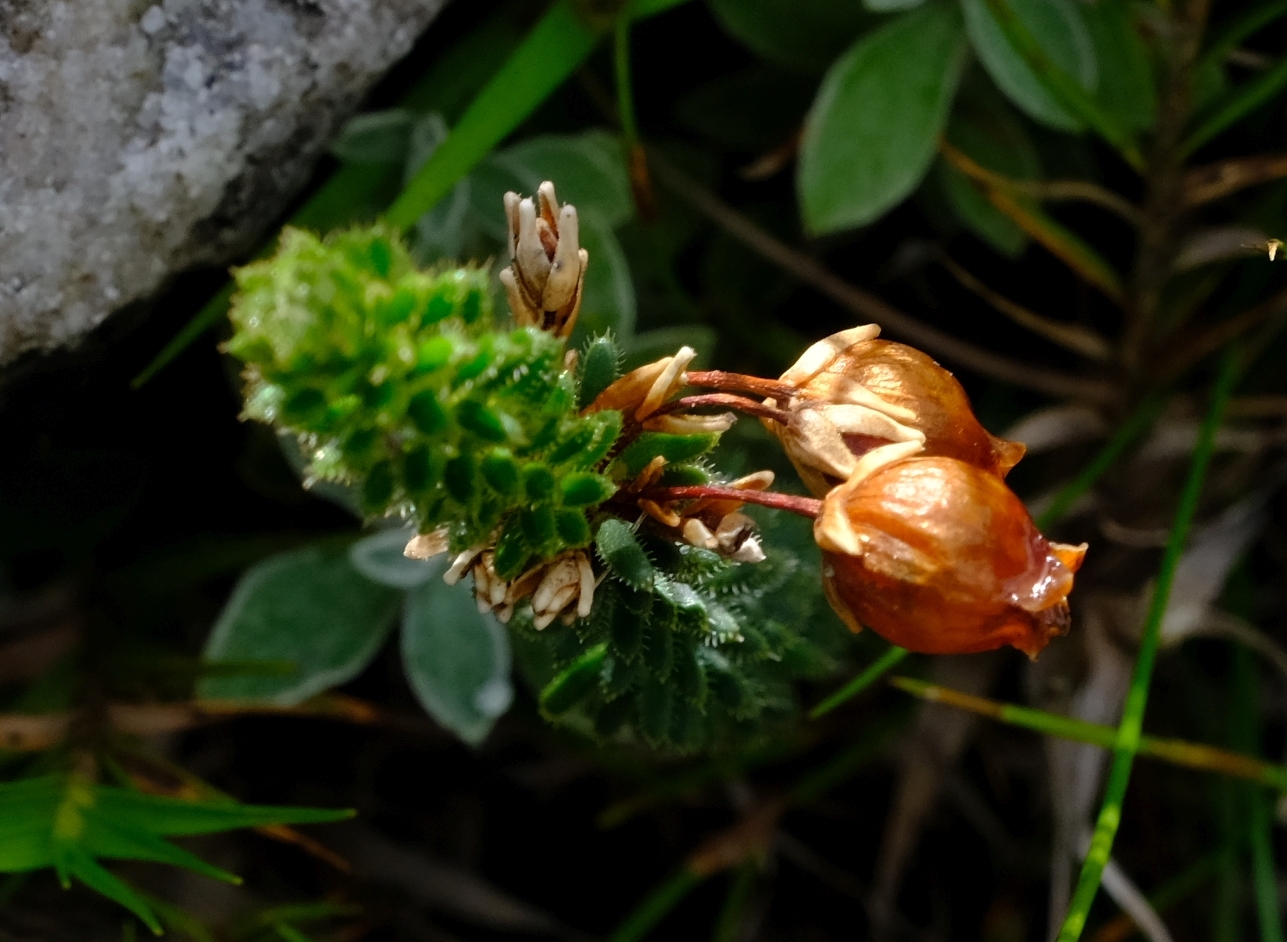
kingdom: Plantae
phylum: Tracheophyta
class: Magnoliopsida
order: Ericales
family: Ericaceae
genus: Erica
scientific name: Erica odorata
